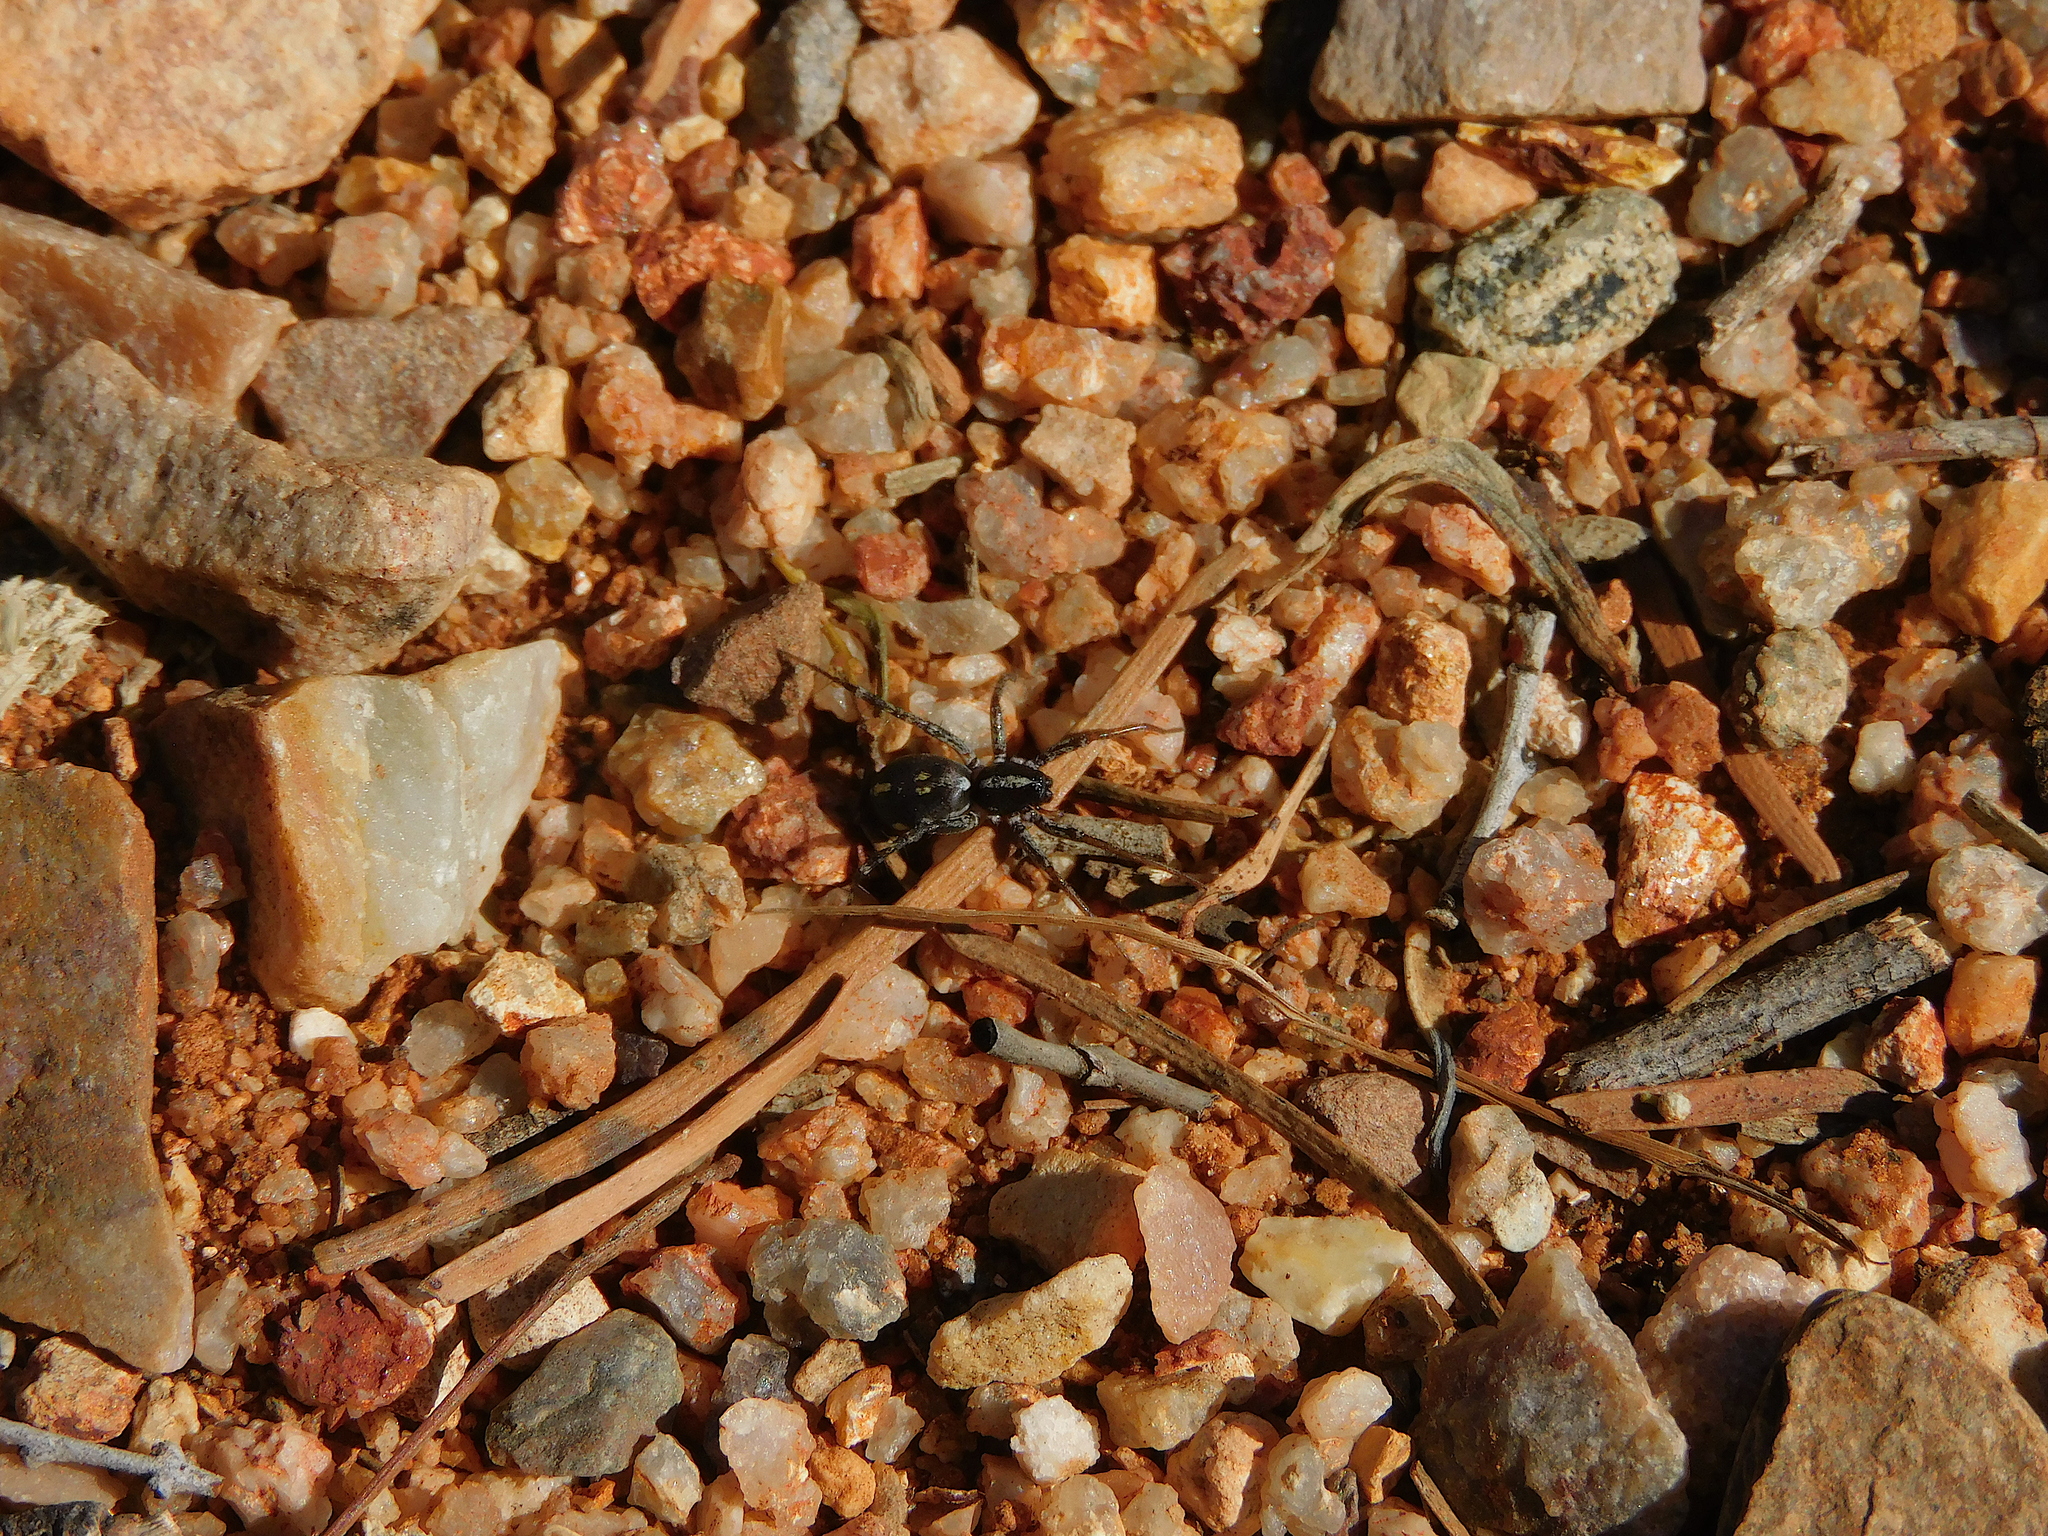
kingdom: Animalia
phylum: Arthropoda
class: Arachnida
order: Araneae
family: Corinnidae
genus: Nyssus
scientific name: Nyssus coloripes
